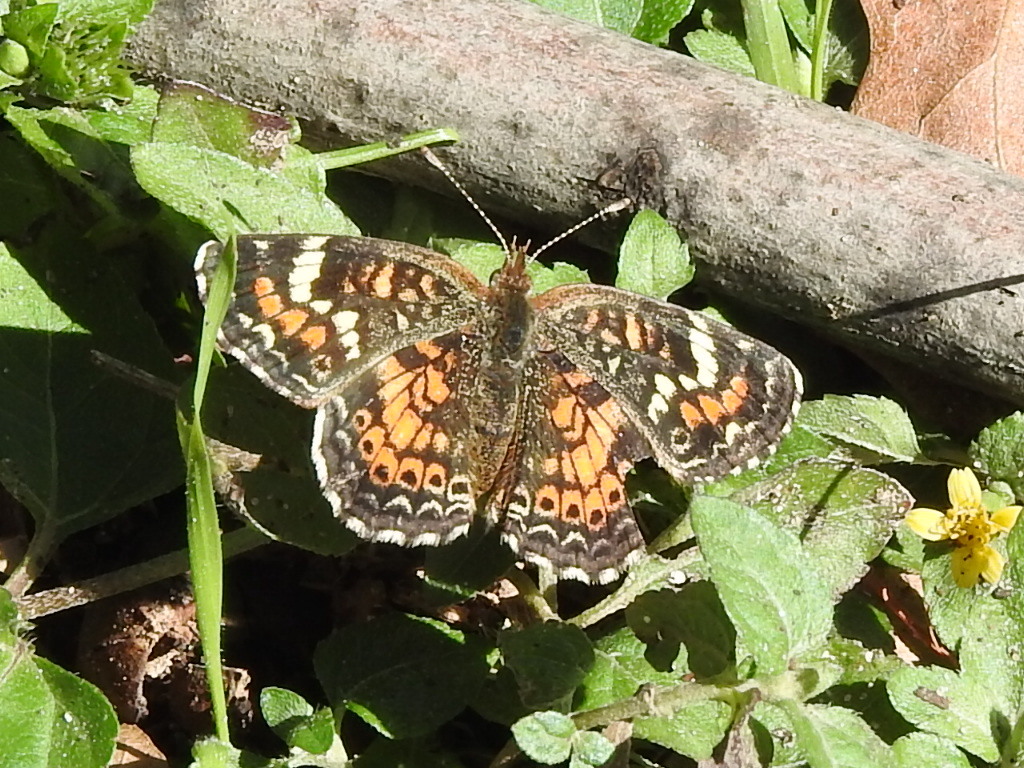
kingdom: Animalia
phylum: Arthropoda
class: Insecta
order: Lepidoptera
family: Nymphalidae
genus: Phyciodes
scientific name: Phyciodes phaon
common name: Phaon crescent
